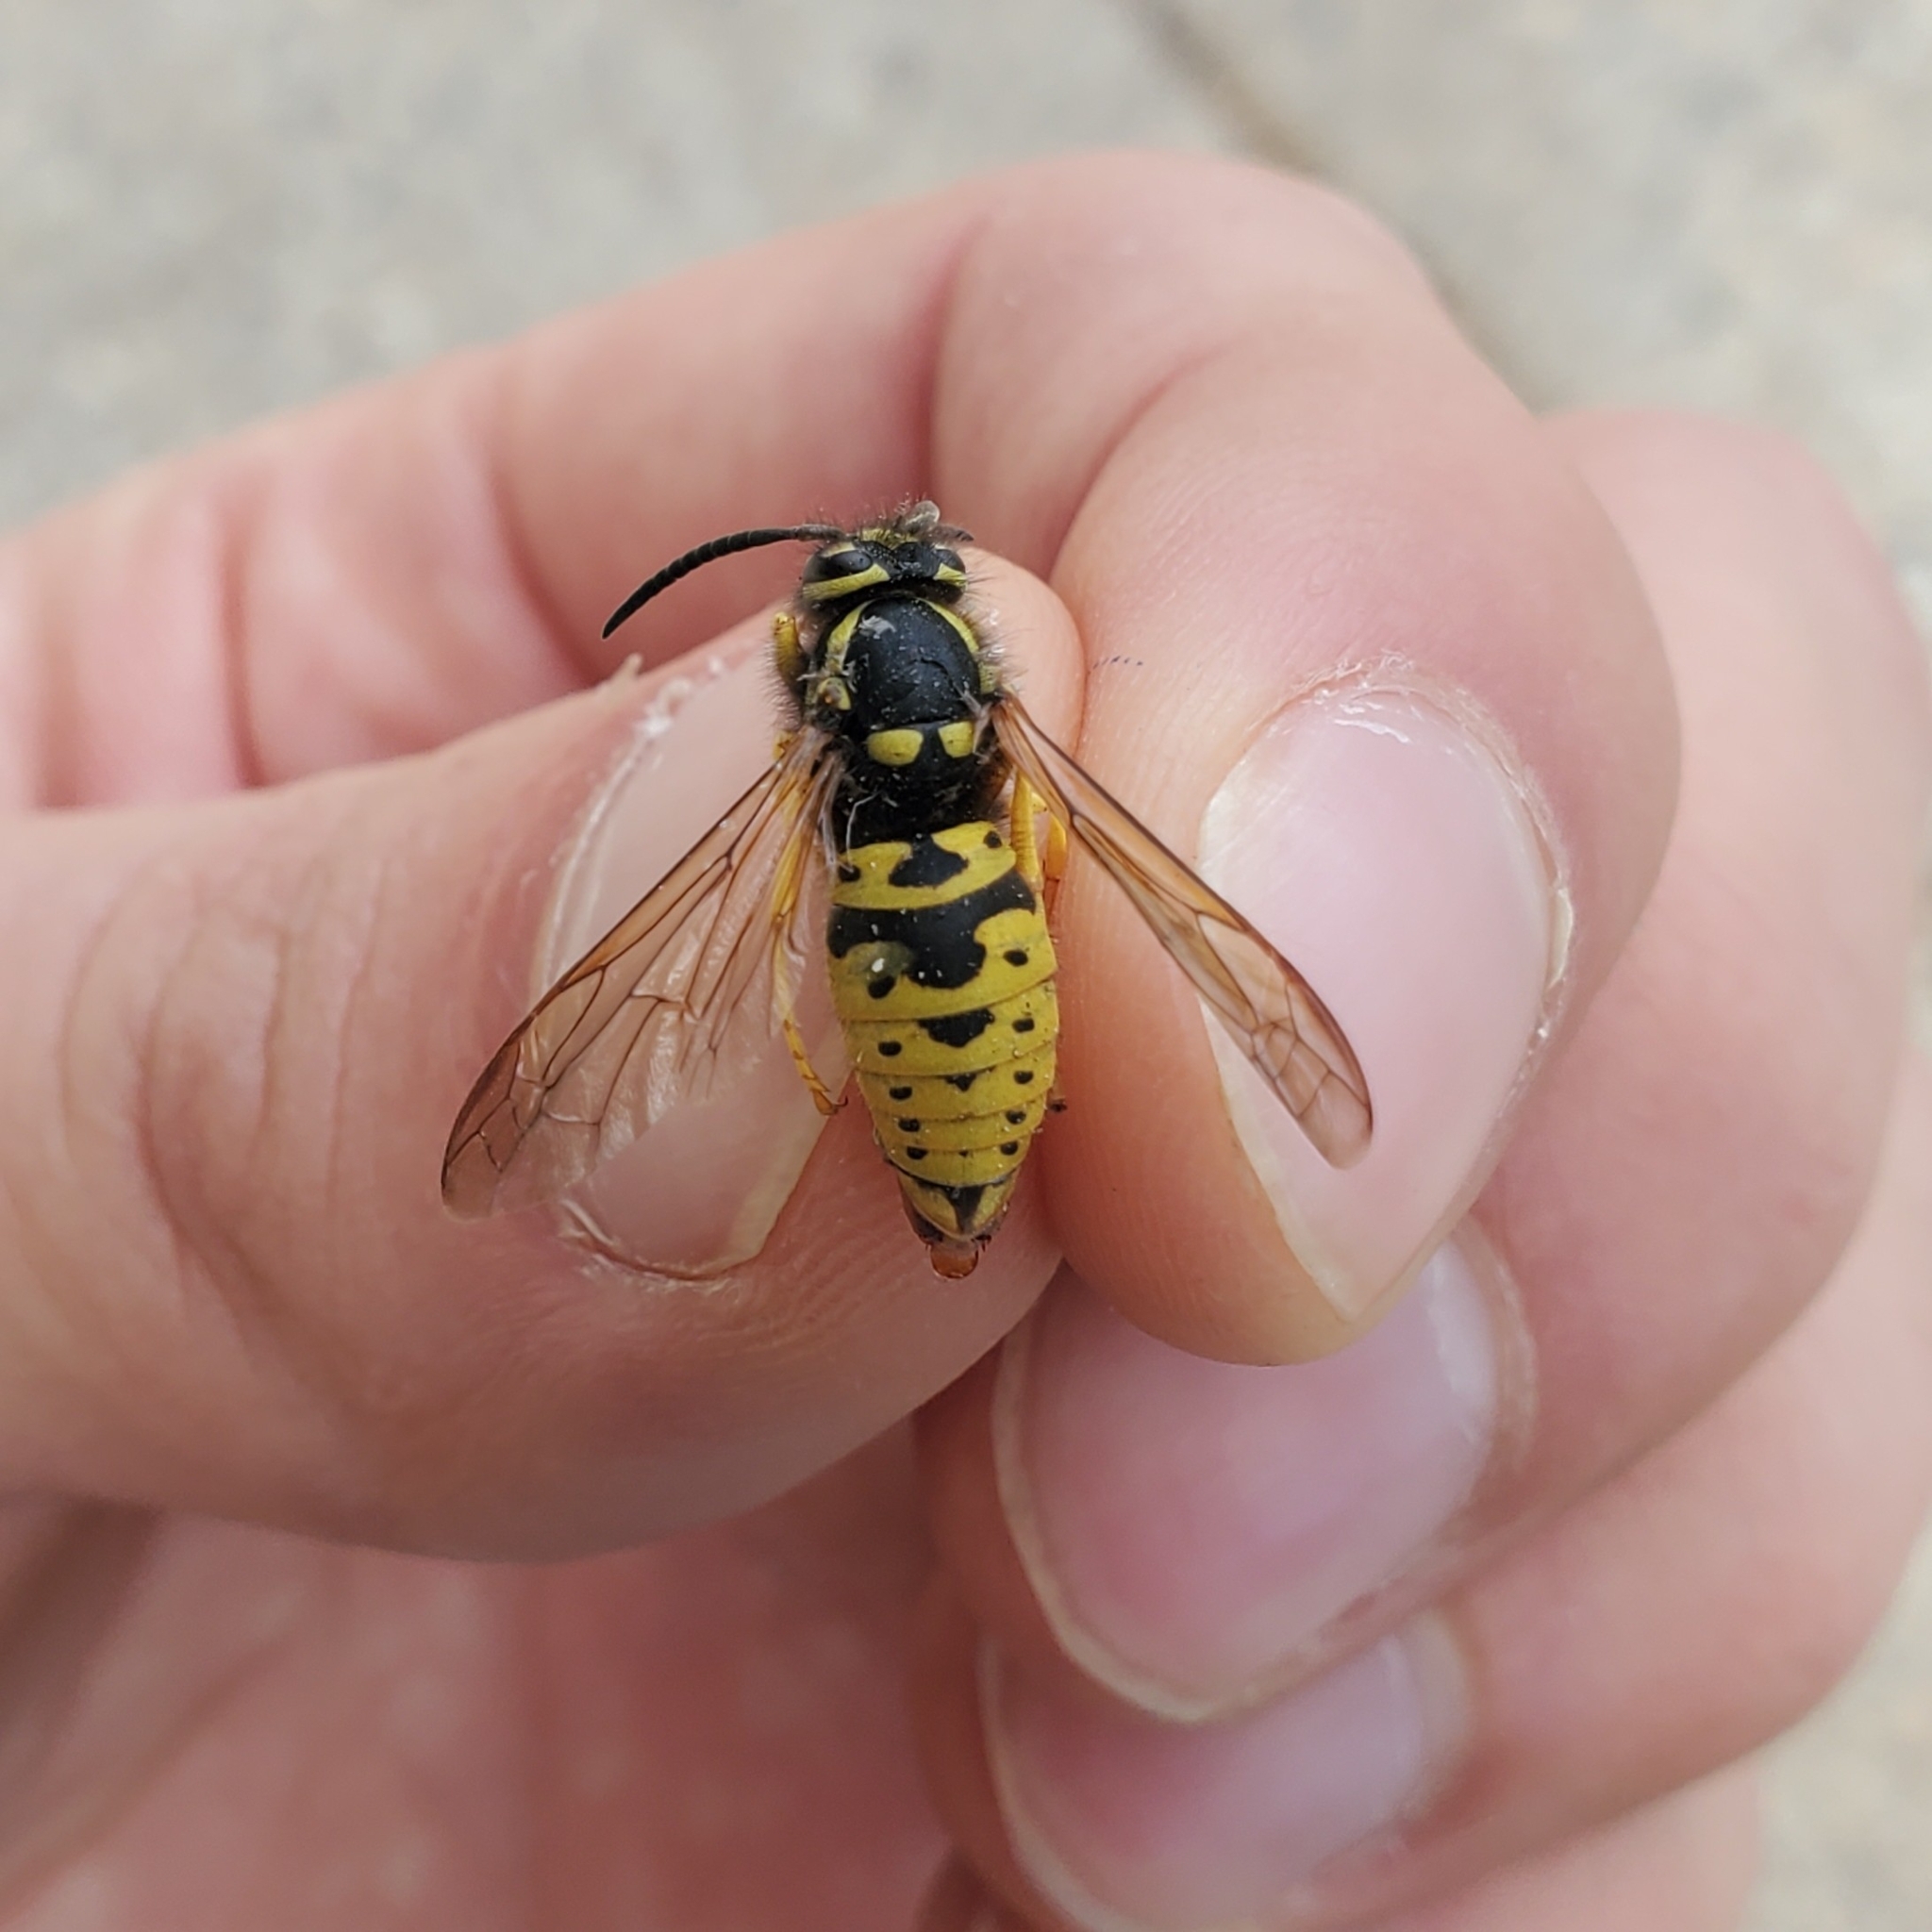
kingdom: Animalia
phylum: Arthropoda
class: Insecta
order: Hymenoptera
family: Vespidae
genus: Vespula
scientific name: Vespula atropilosa
